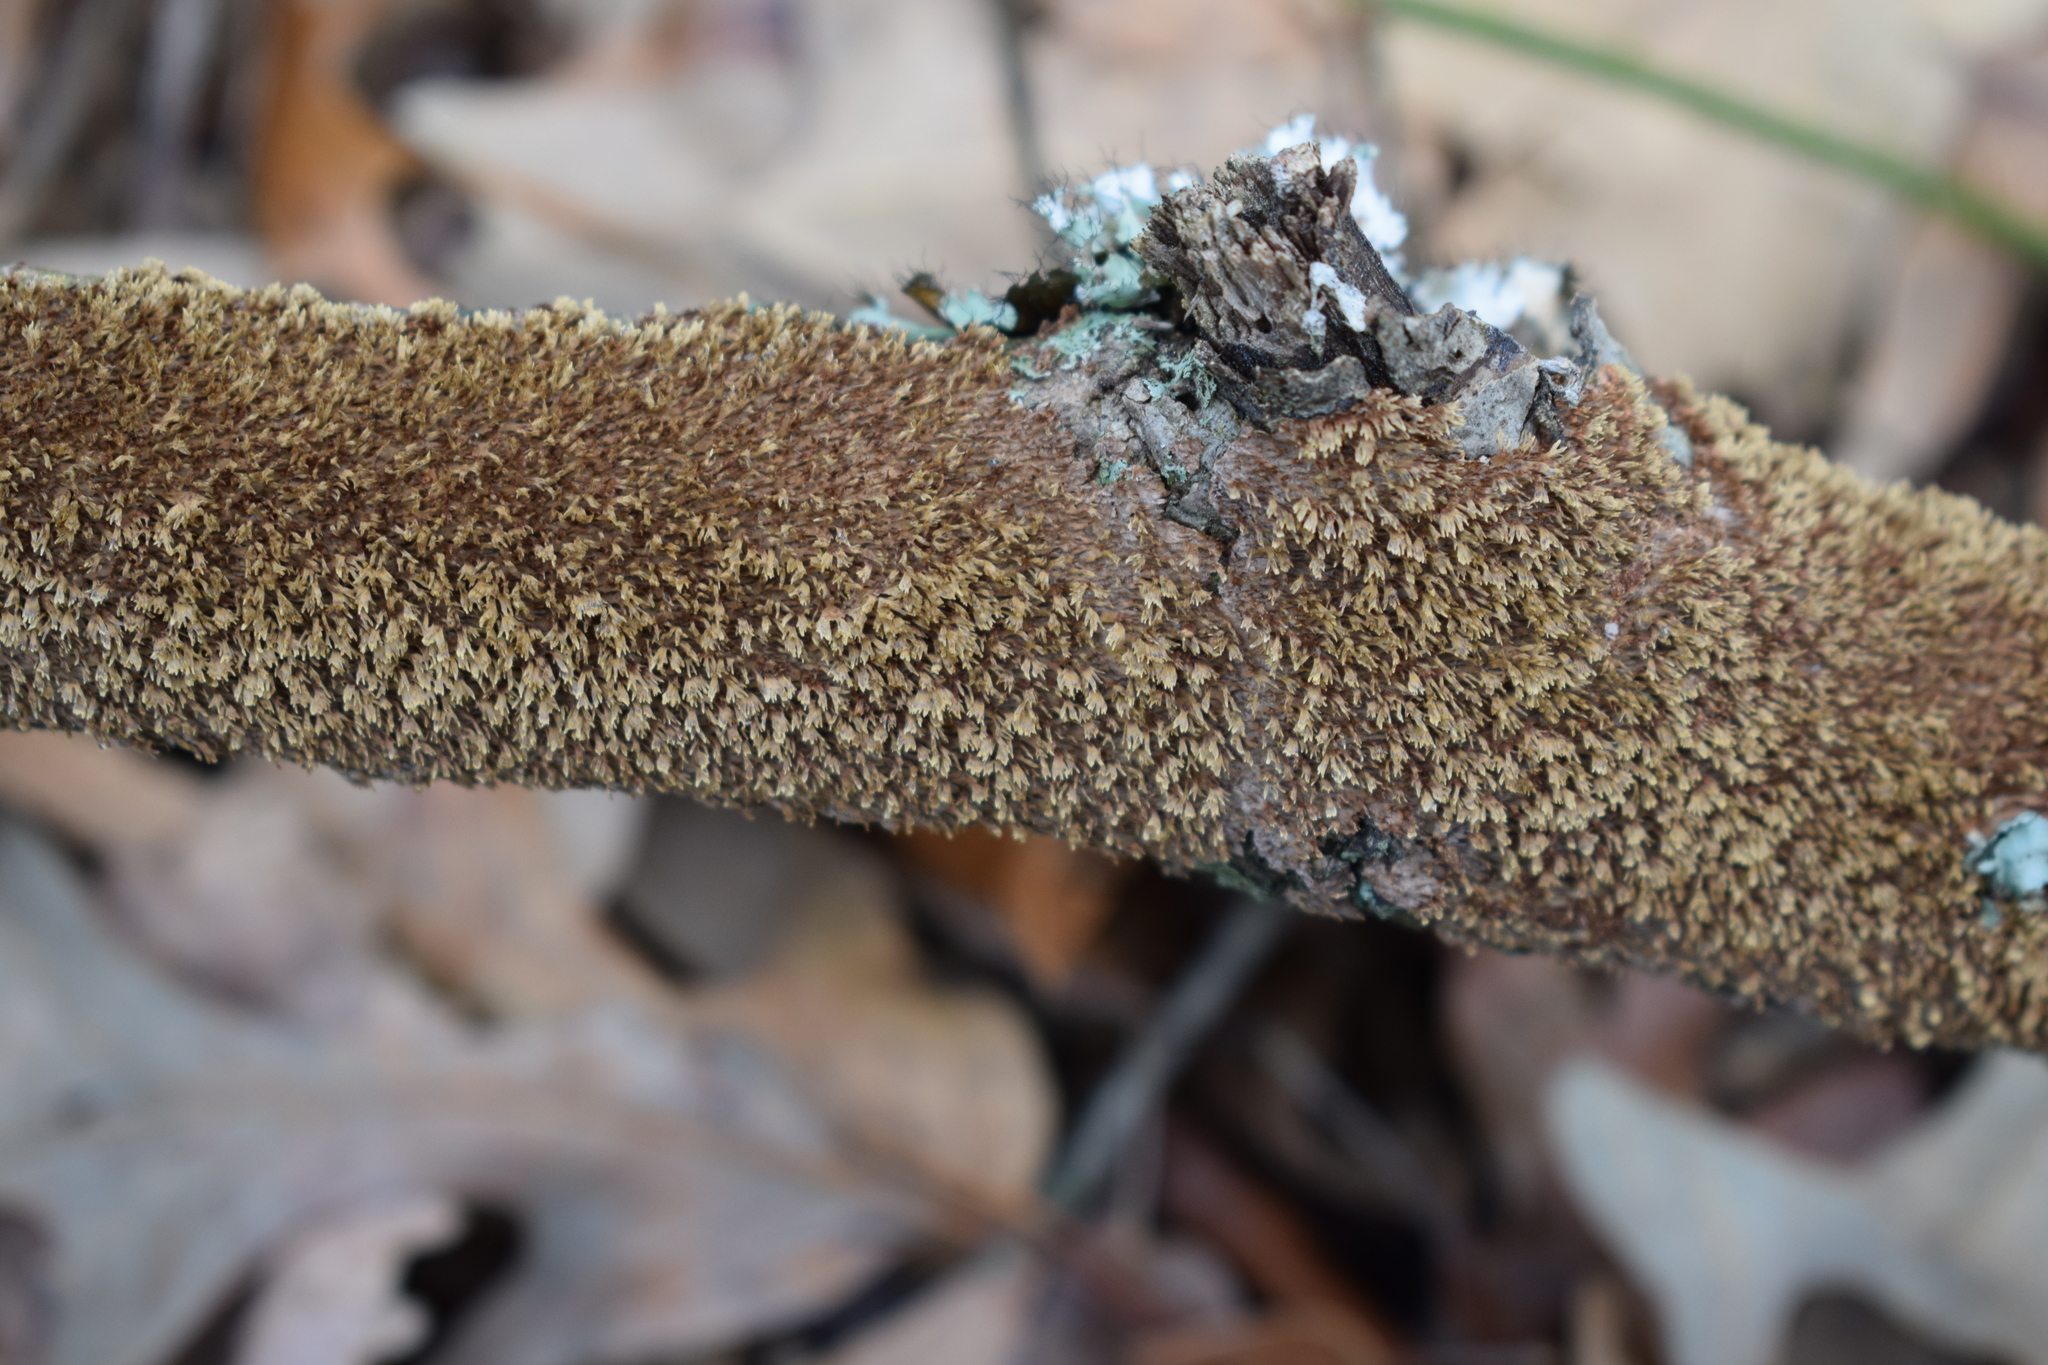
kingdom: Fungi
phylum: Basidiomycota
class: Agaricomycetes
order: Hymenochaetales
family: Hymenochaetaceae
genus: Hydnoporia
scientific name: Hydnoporia olivacea
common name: Brown-toothed crust fungus
